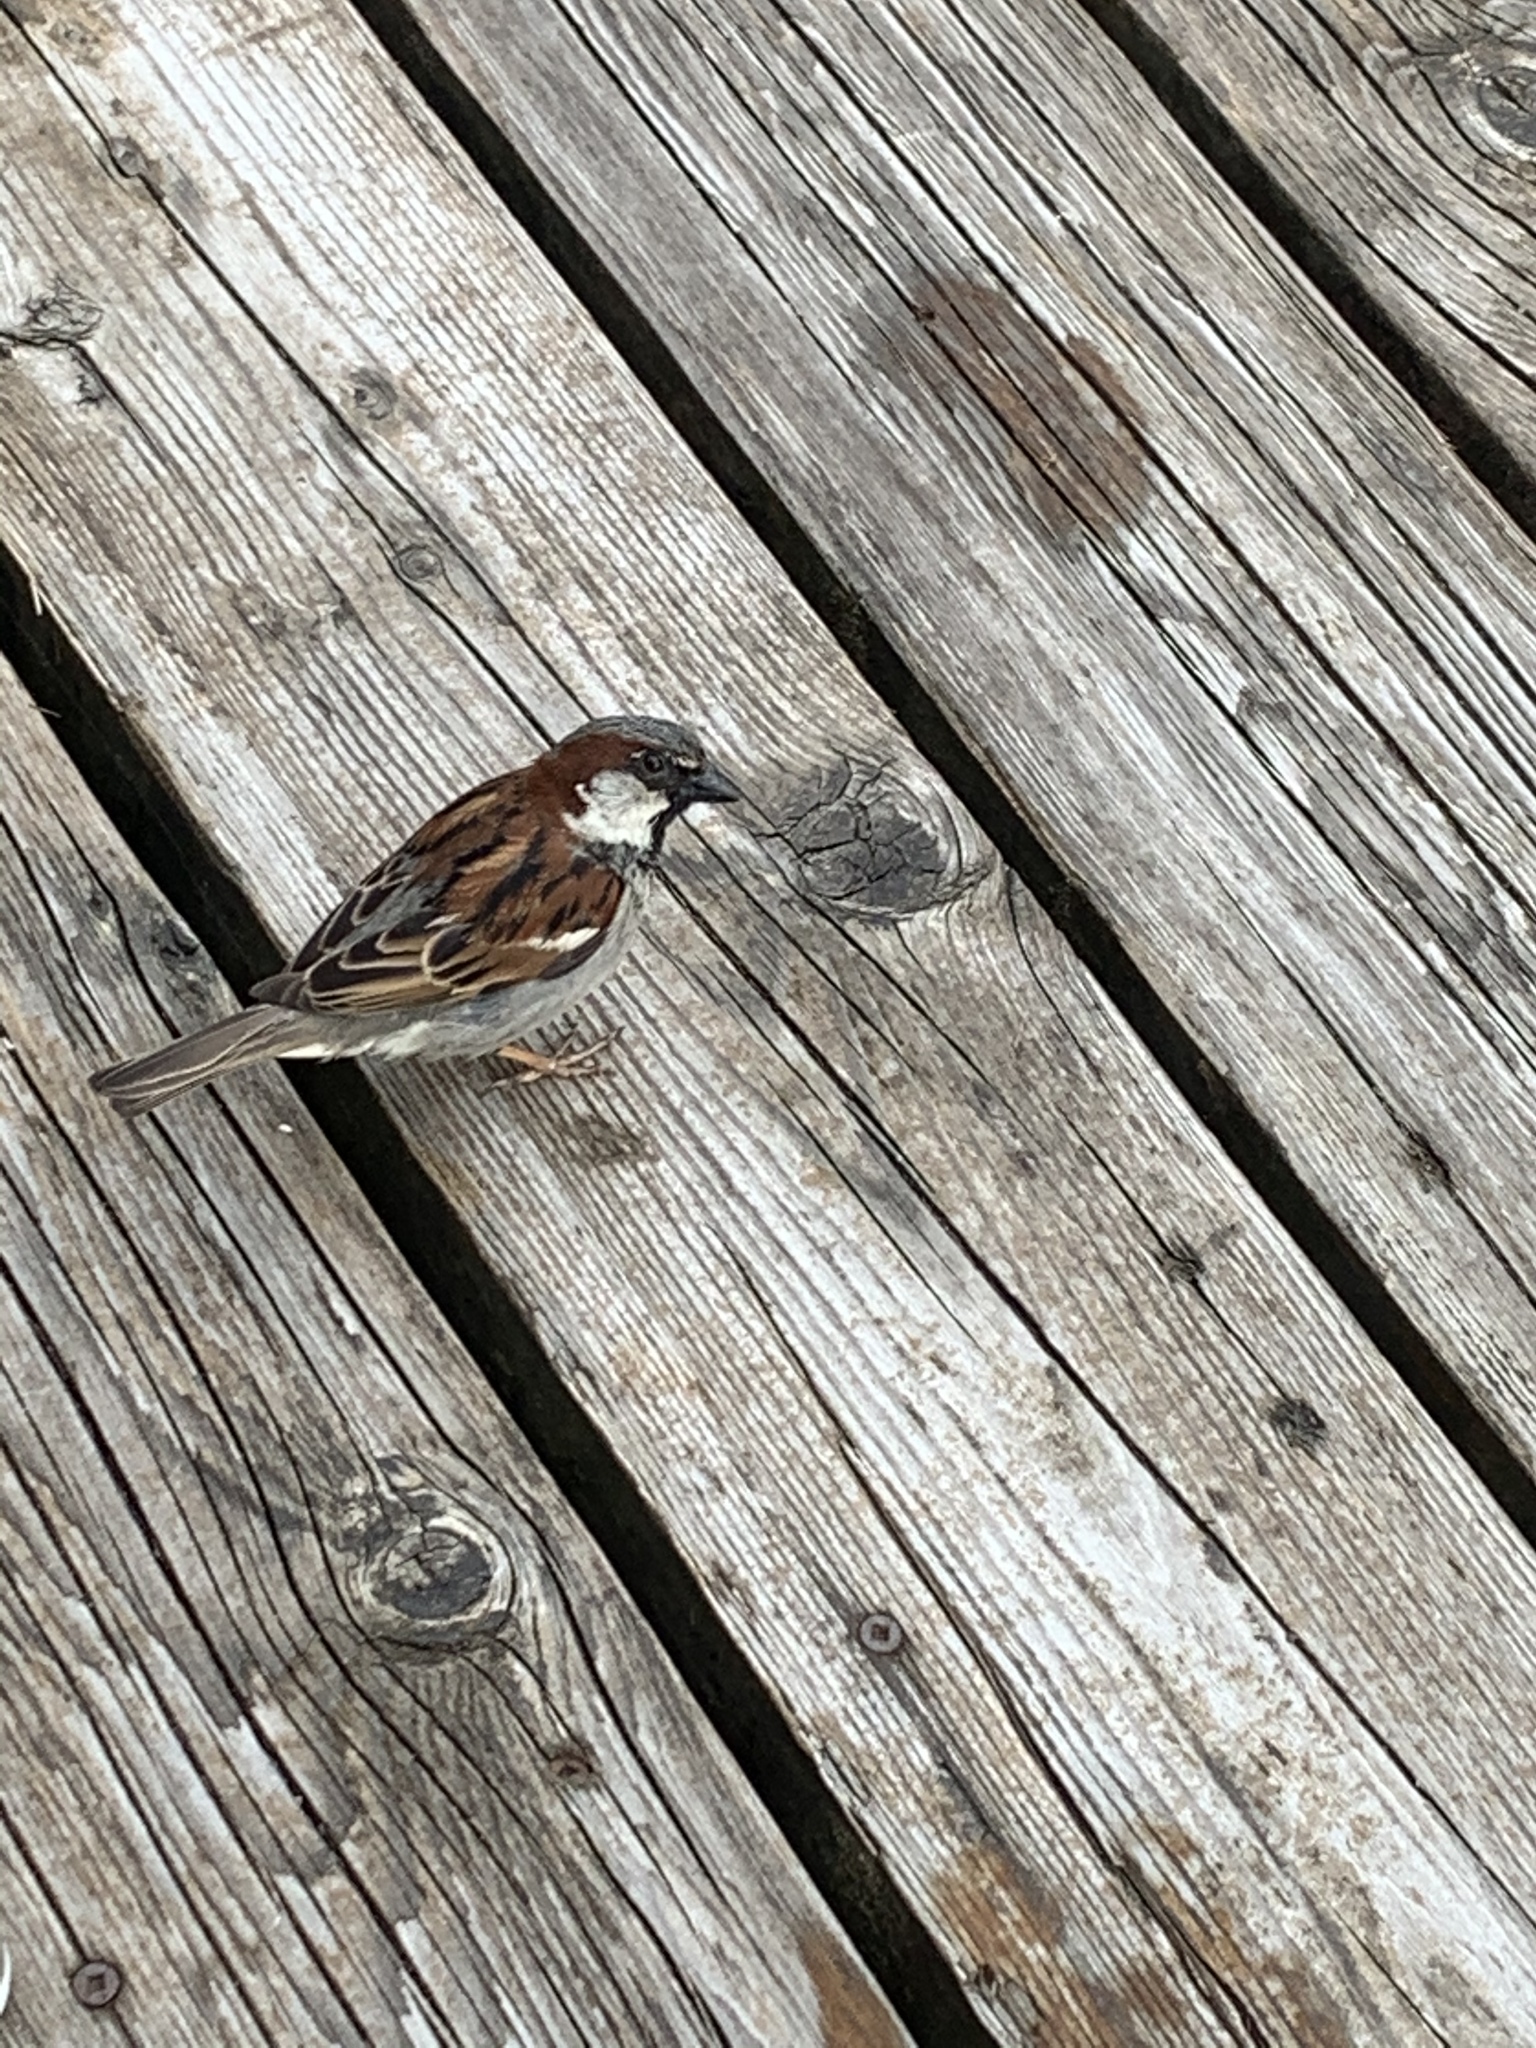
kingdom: Animalia
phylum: Chordata
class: Aves
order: Passeriformes
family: Passeridae
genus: Passer
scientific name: Passer domesticus
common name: House sparrow
